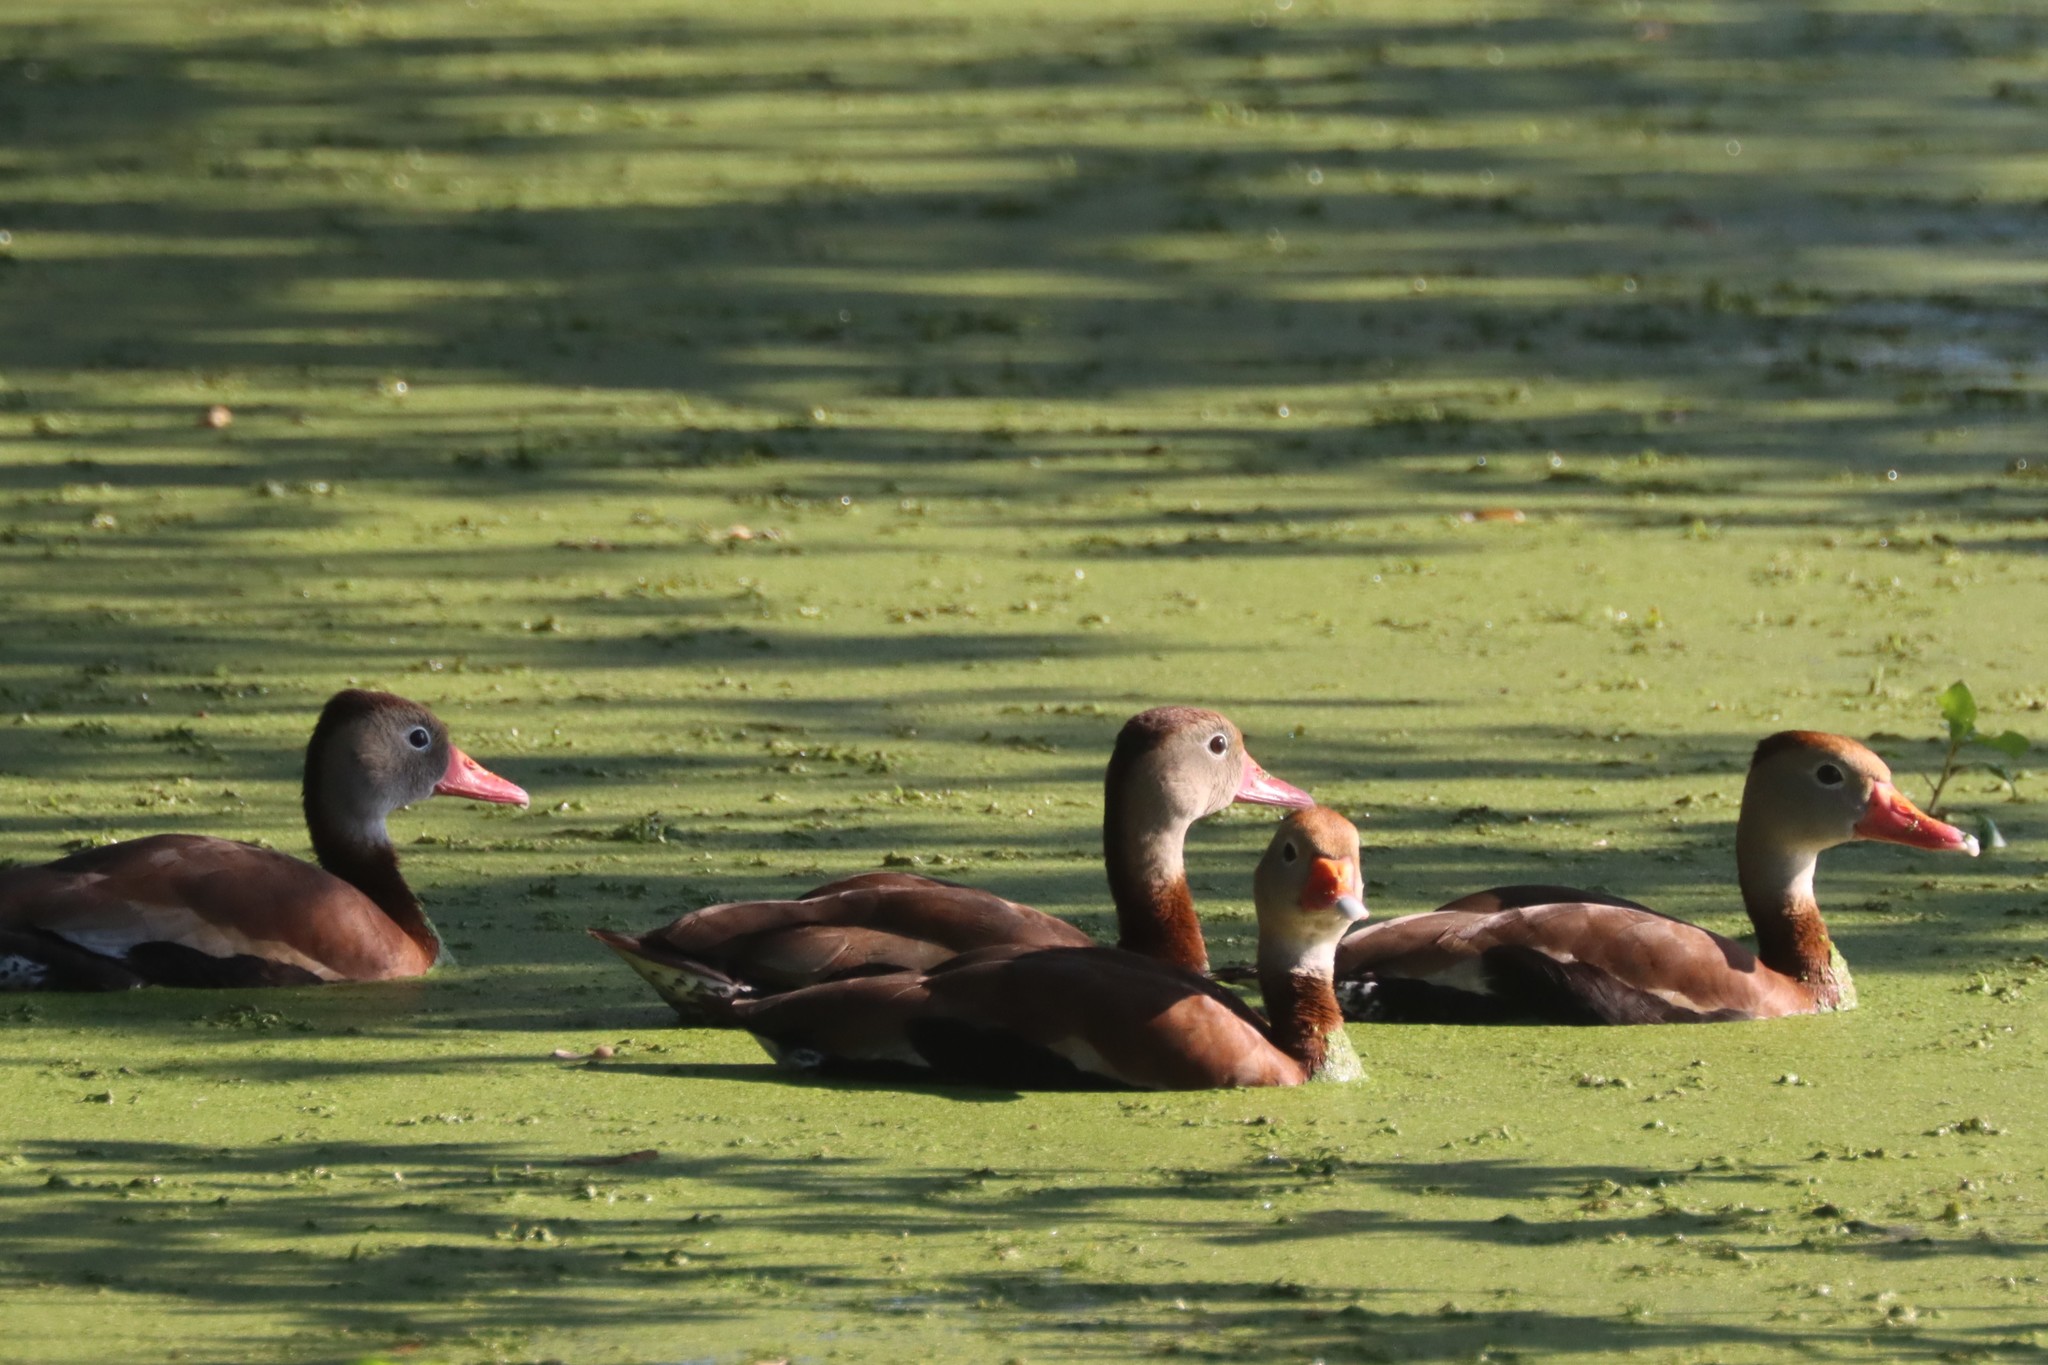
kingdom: Animalia
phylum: Chordata
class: Aves
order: Anseriformes
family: Anatidae
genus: Dendrocygna
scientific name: Dendrocygna autumnalis
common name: Black-bellied whistling duck
